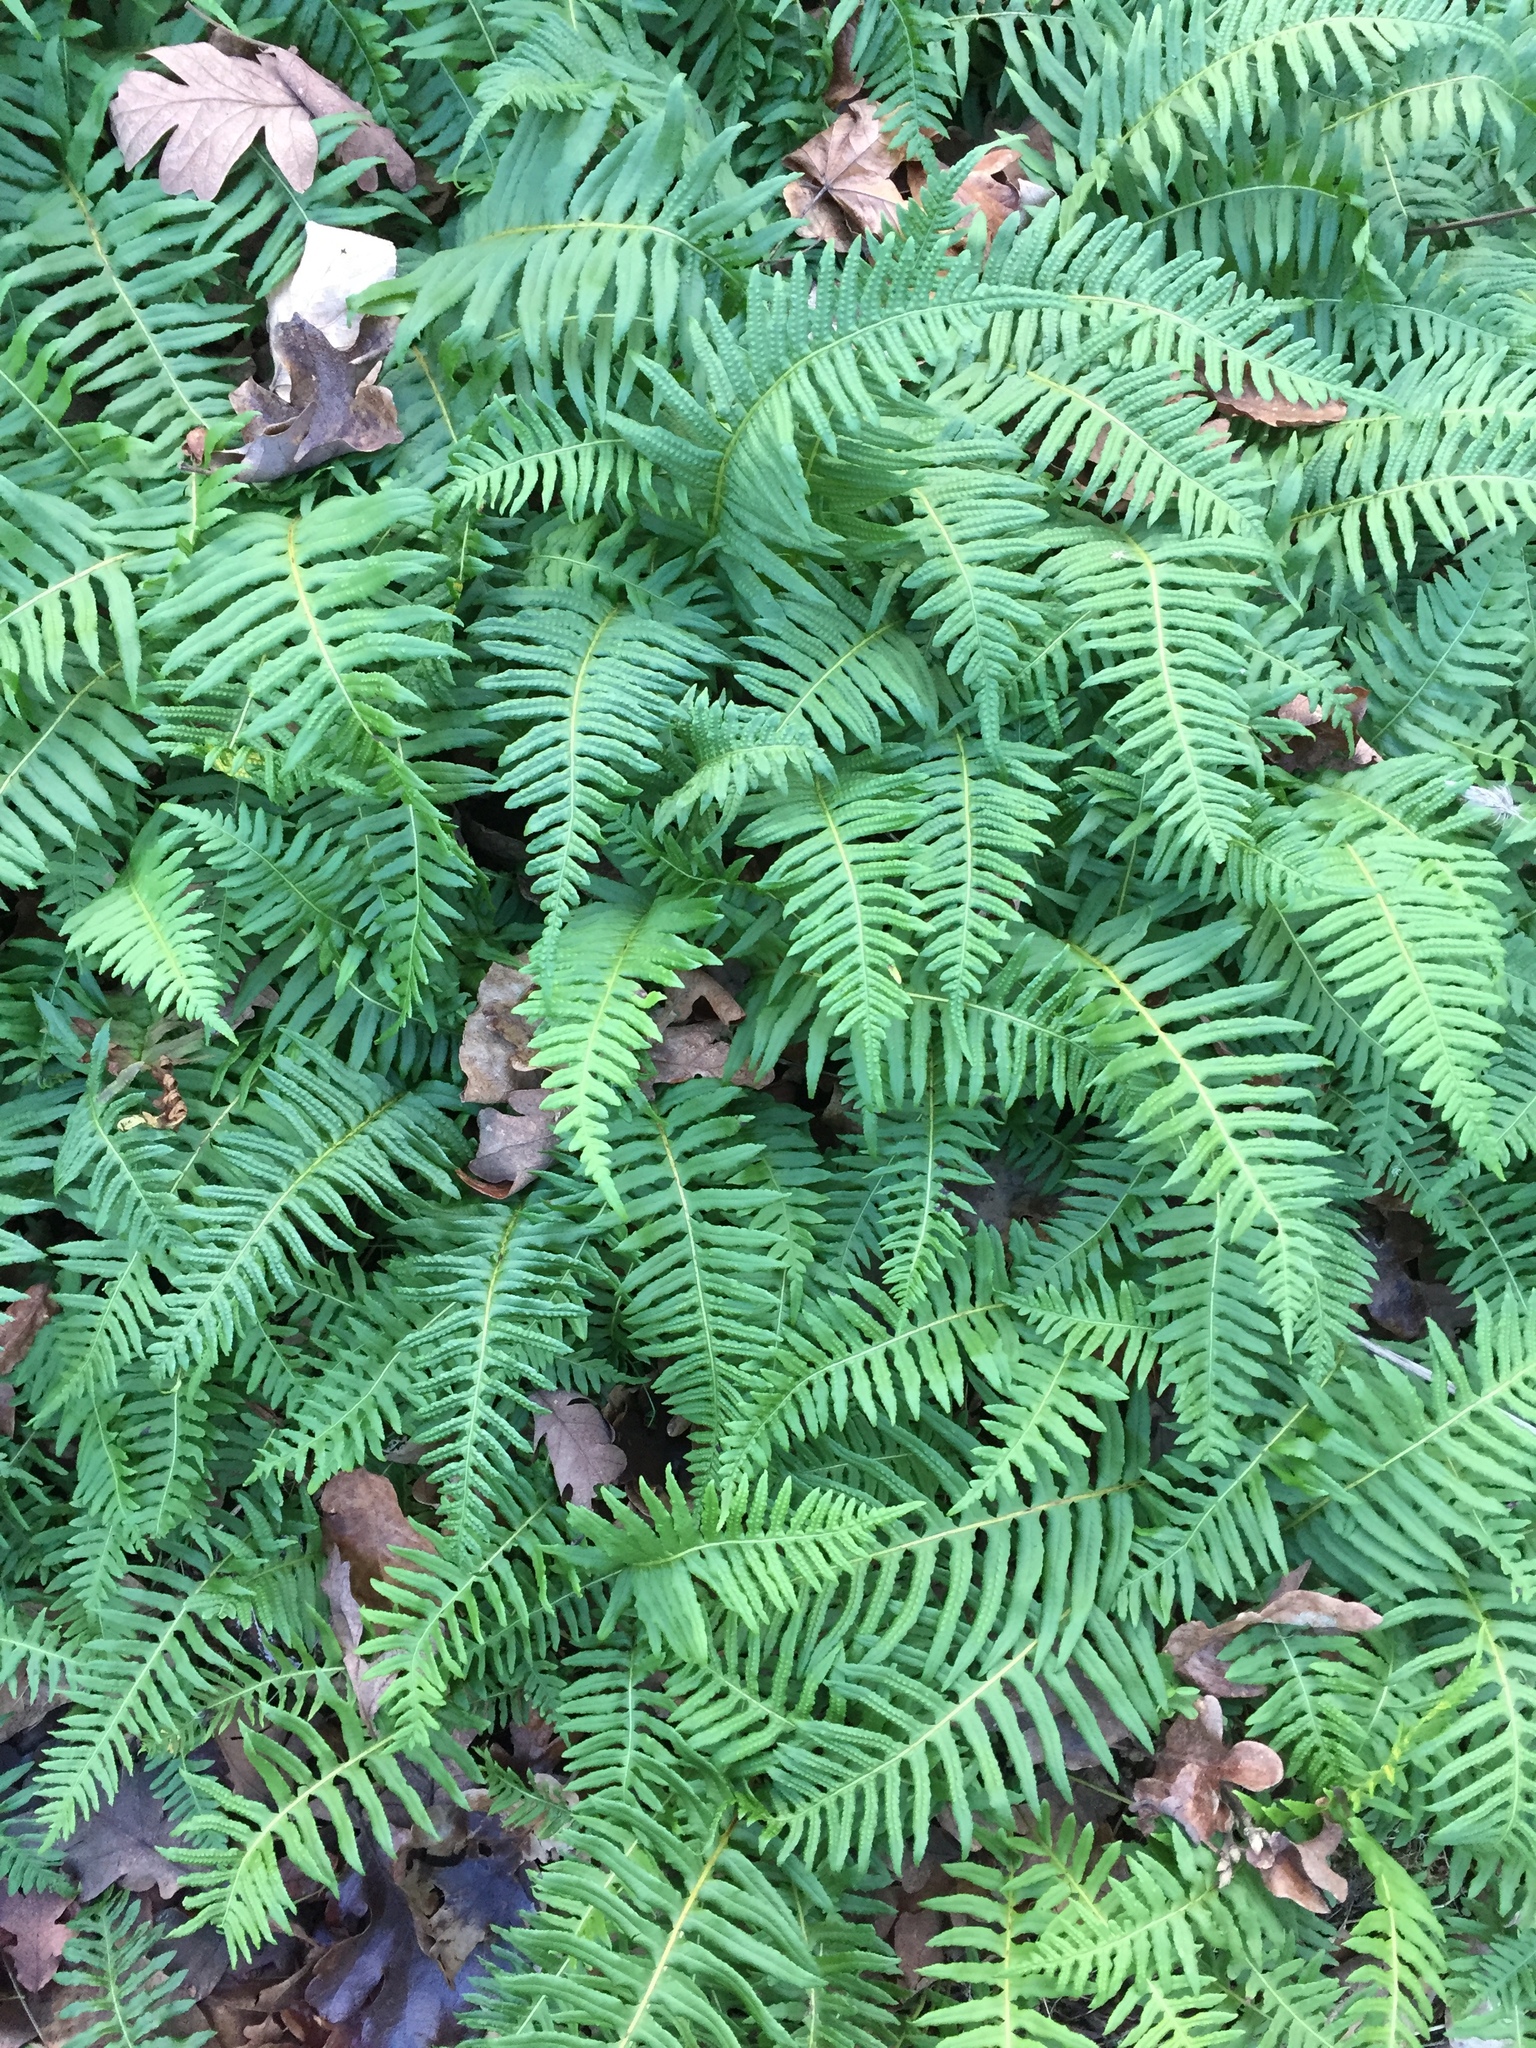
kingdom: Plantae
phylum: Tracheophyta
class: Polypodiopsida
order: Polypodiales
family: Polypodiaceae
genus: Polypodium
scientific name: Polypodium glycyrrhiza
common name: Licorice fern
